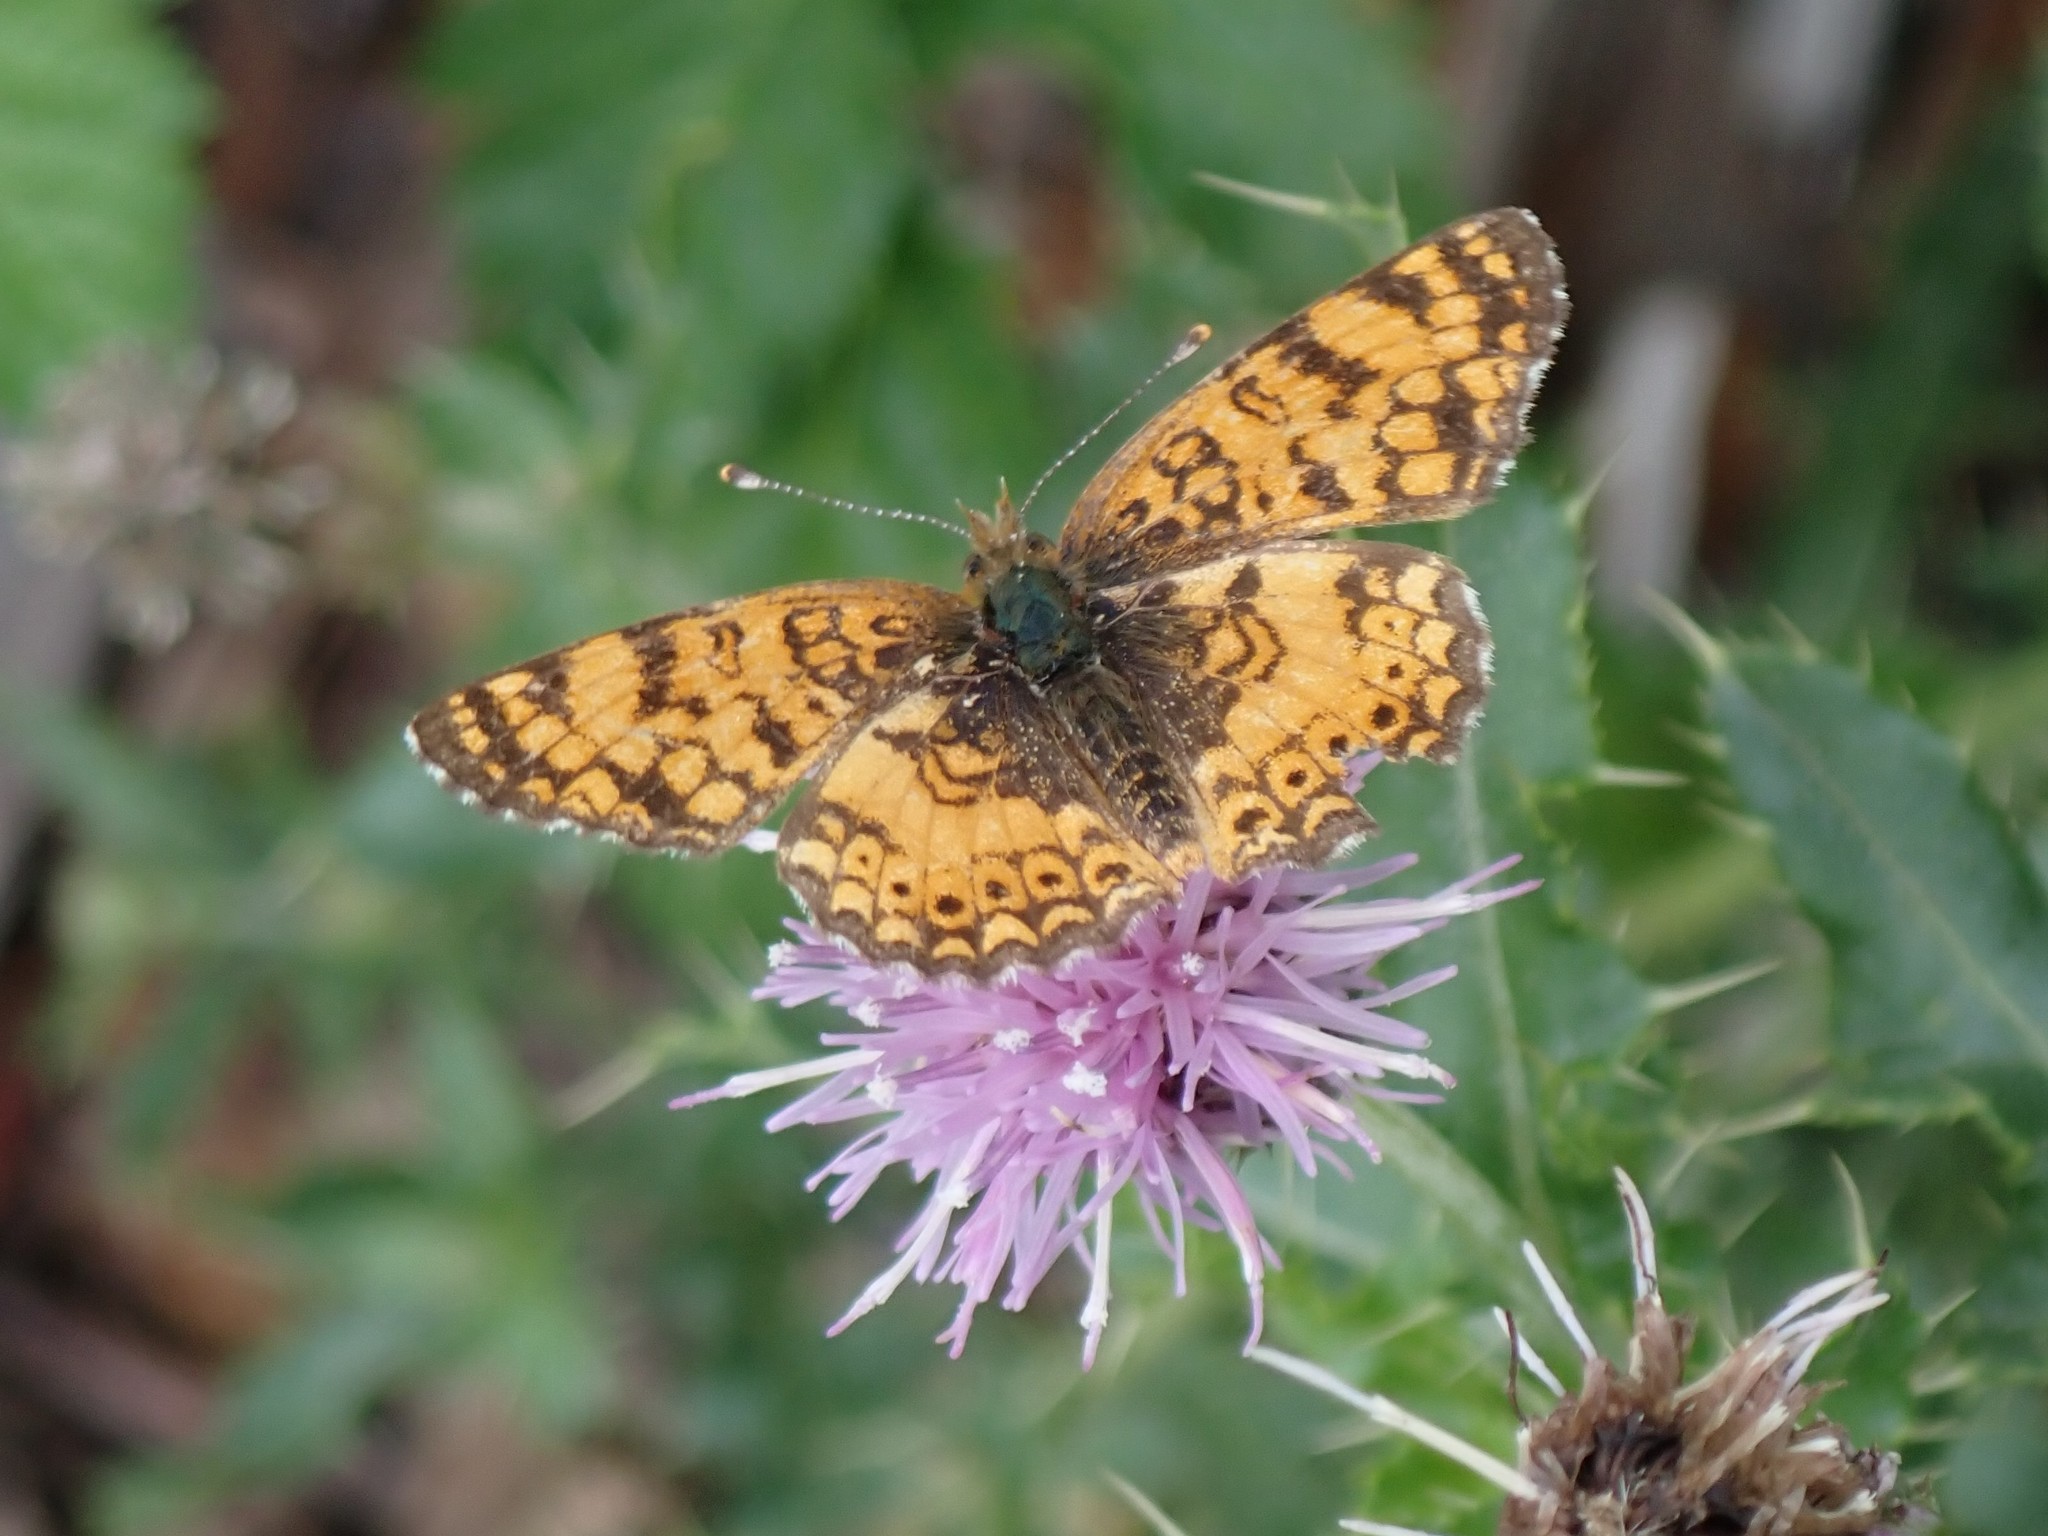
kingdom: Animalia
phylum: Arthropoda
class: Insecta
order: Lepidoptera
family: Nymphalidae
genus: Eresia
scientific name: Eresia aveyrona
